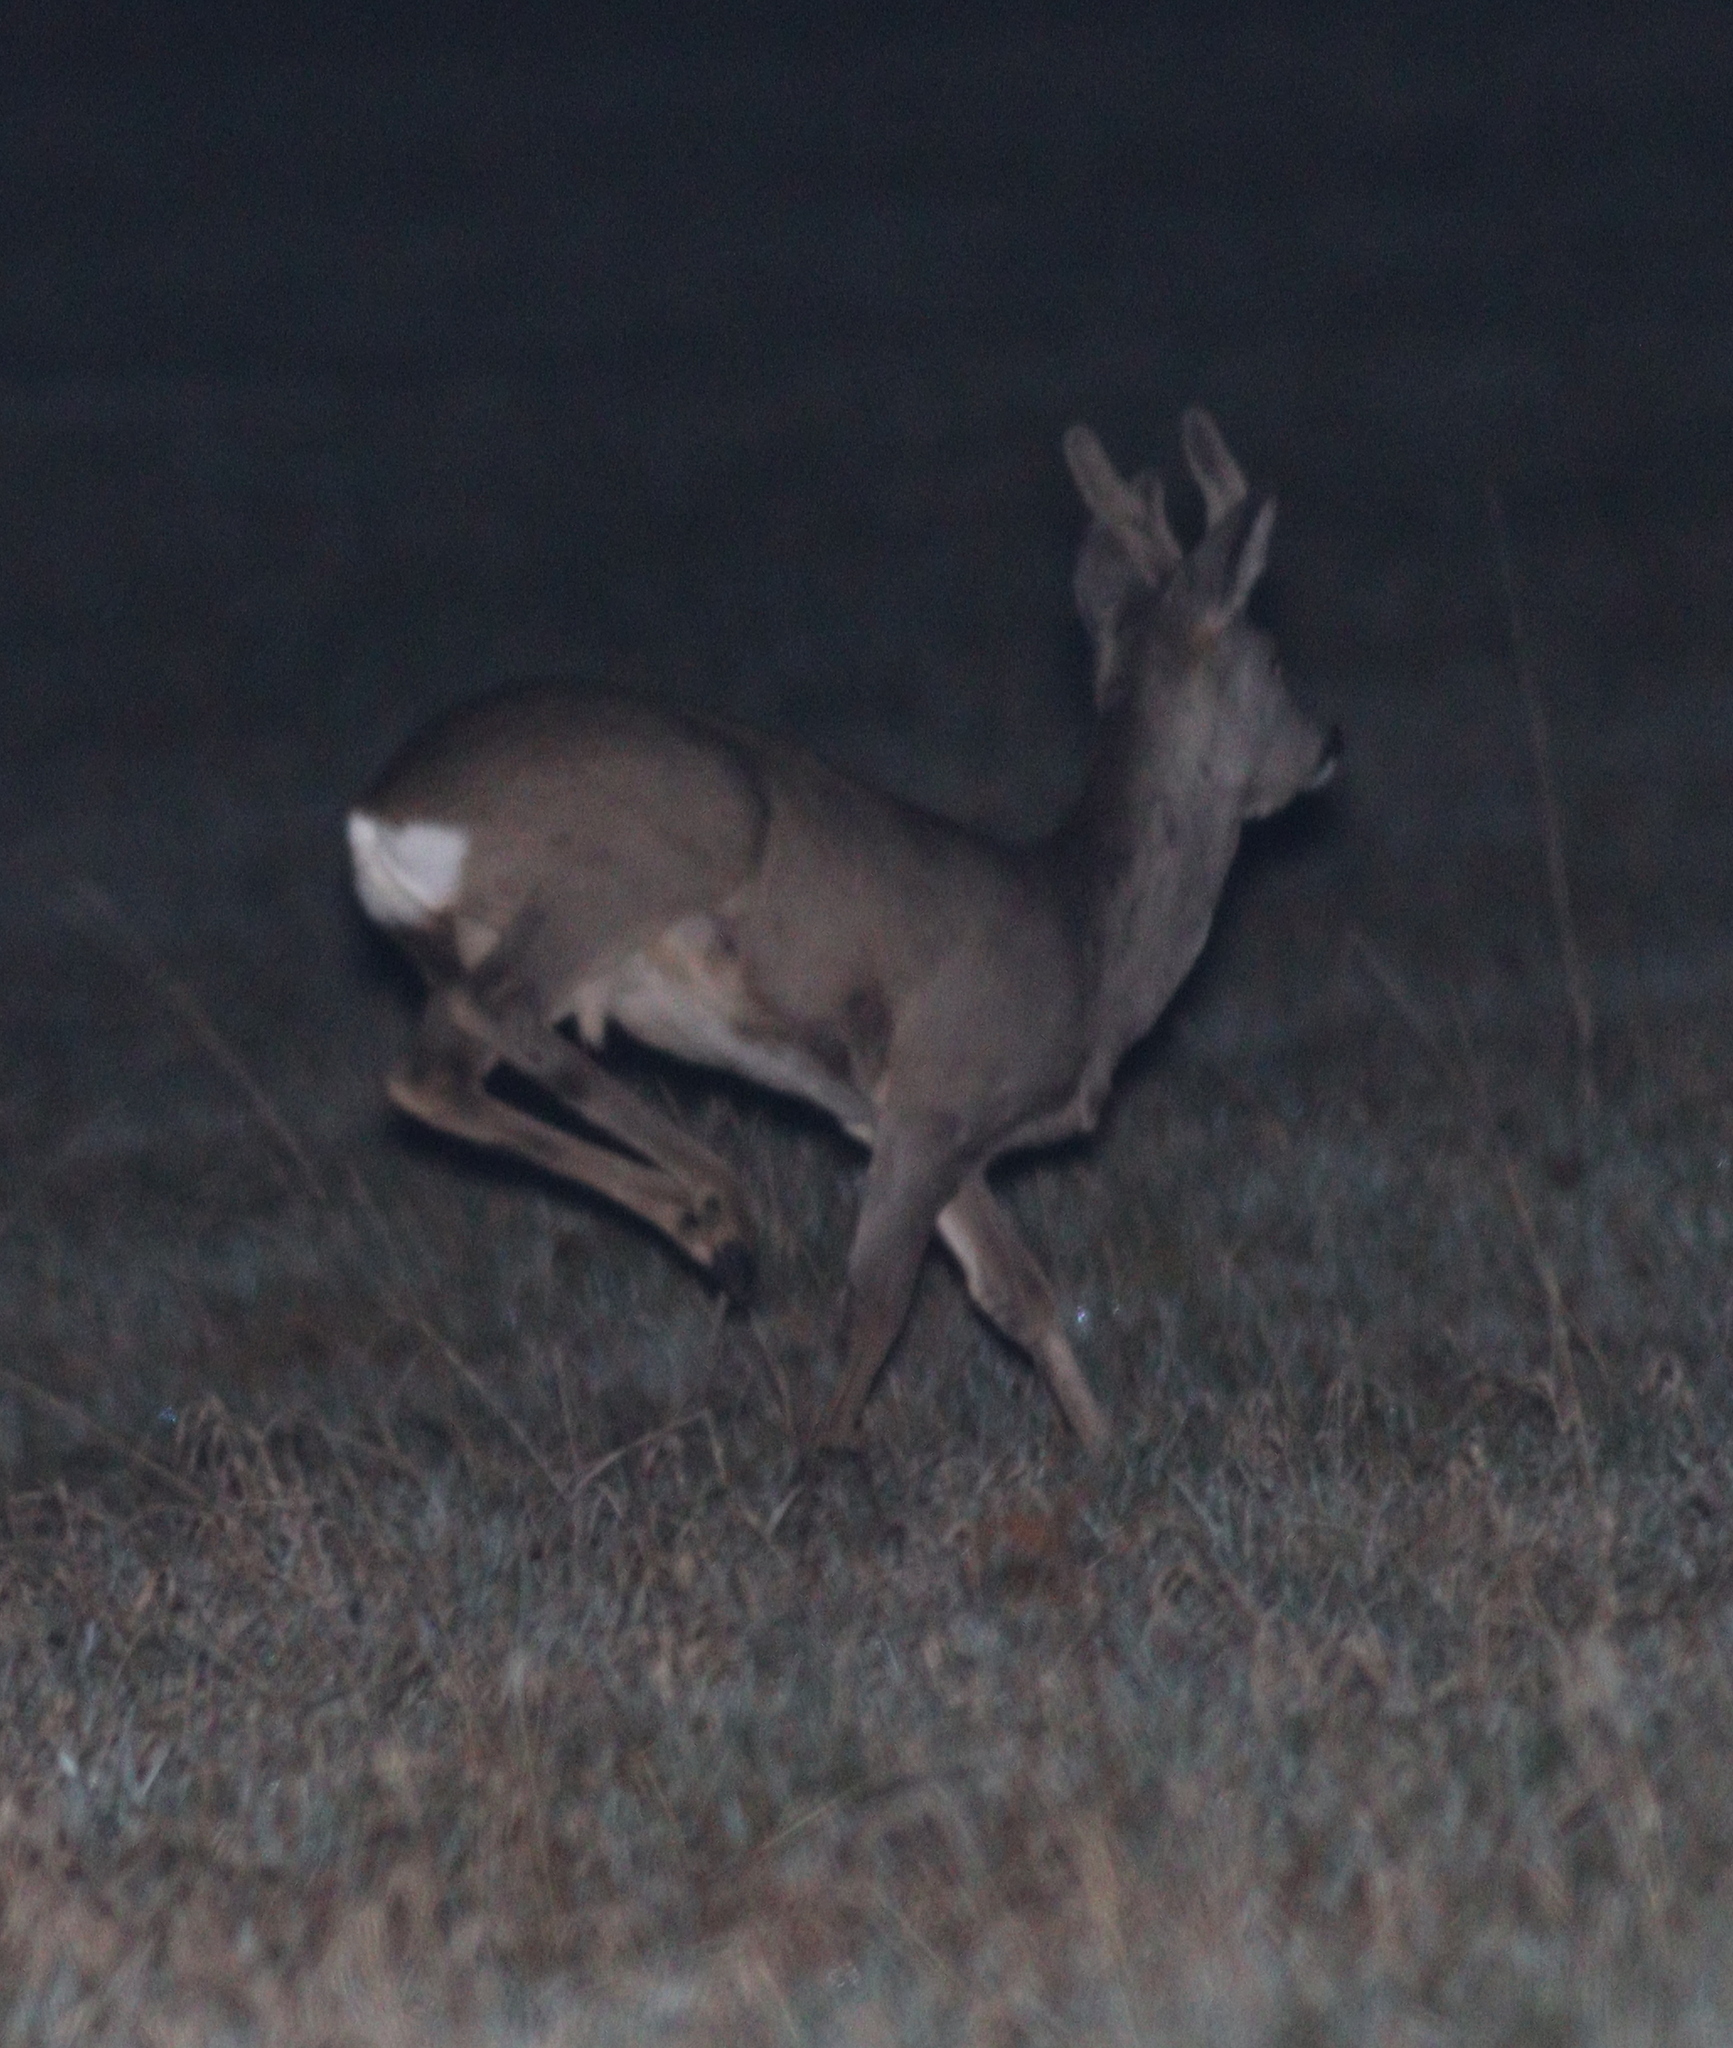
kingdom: Animalia
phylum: Chordata
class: Mammalia
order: Artiodactyla
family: Cervidae
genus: Capreolus
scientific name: Capreolus capreolus
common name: Western roe deer
